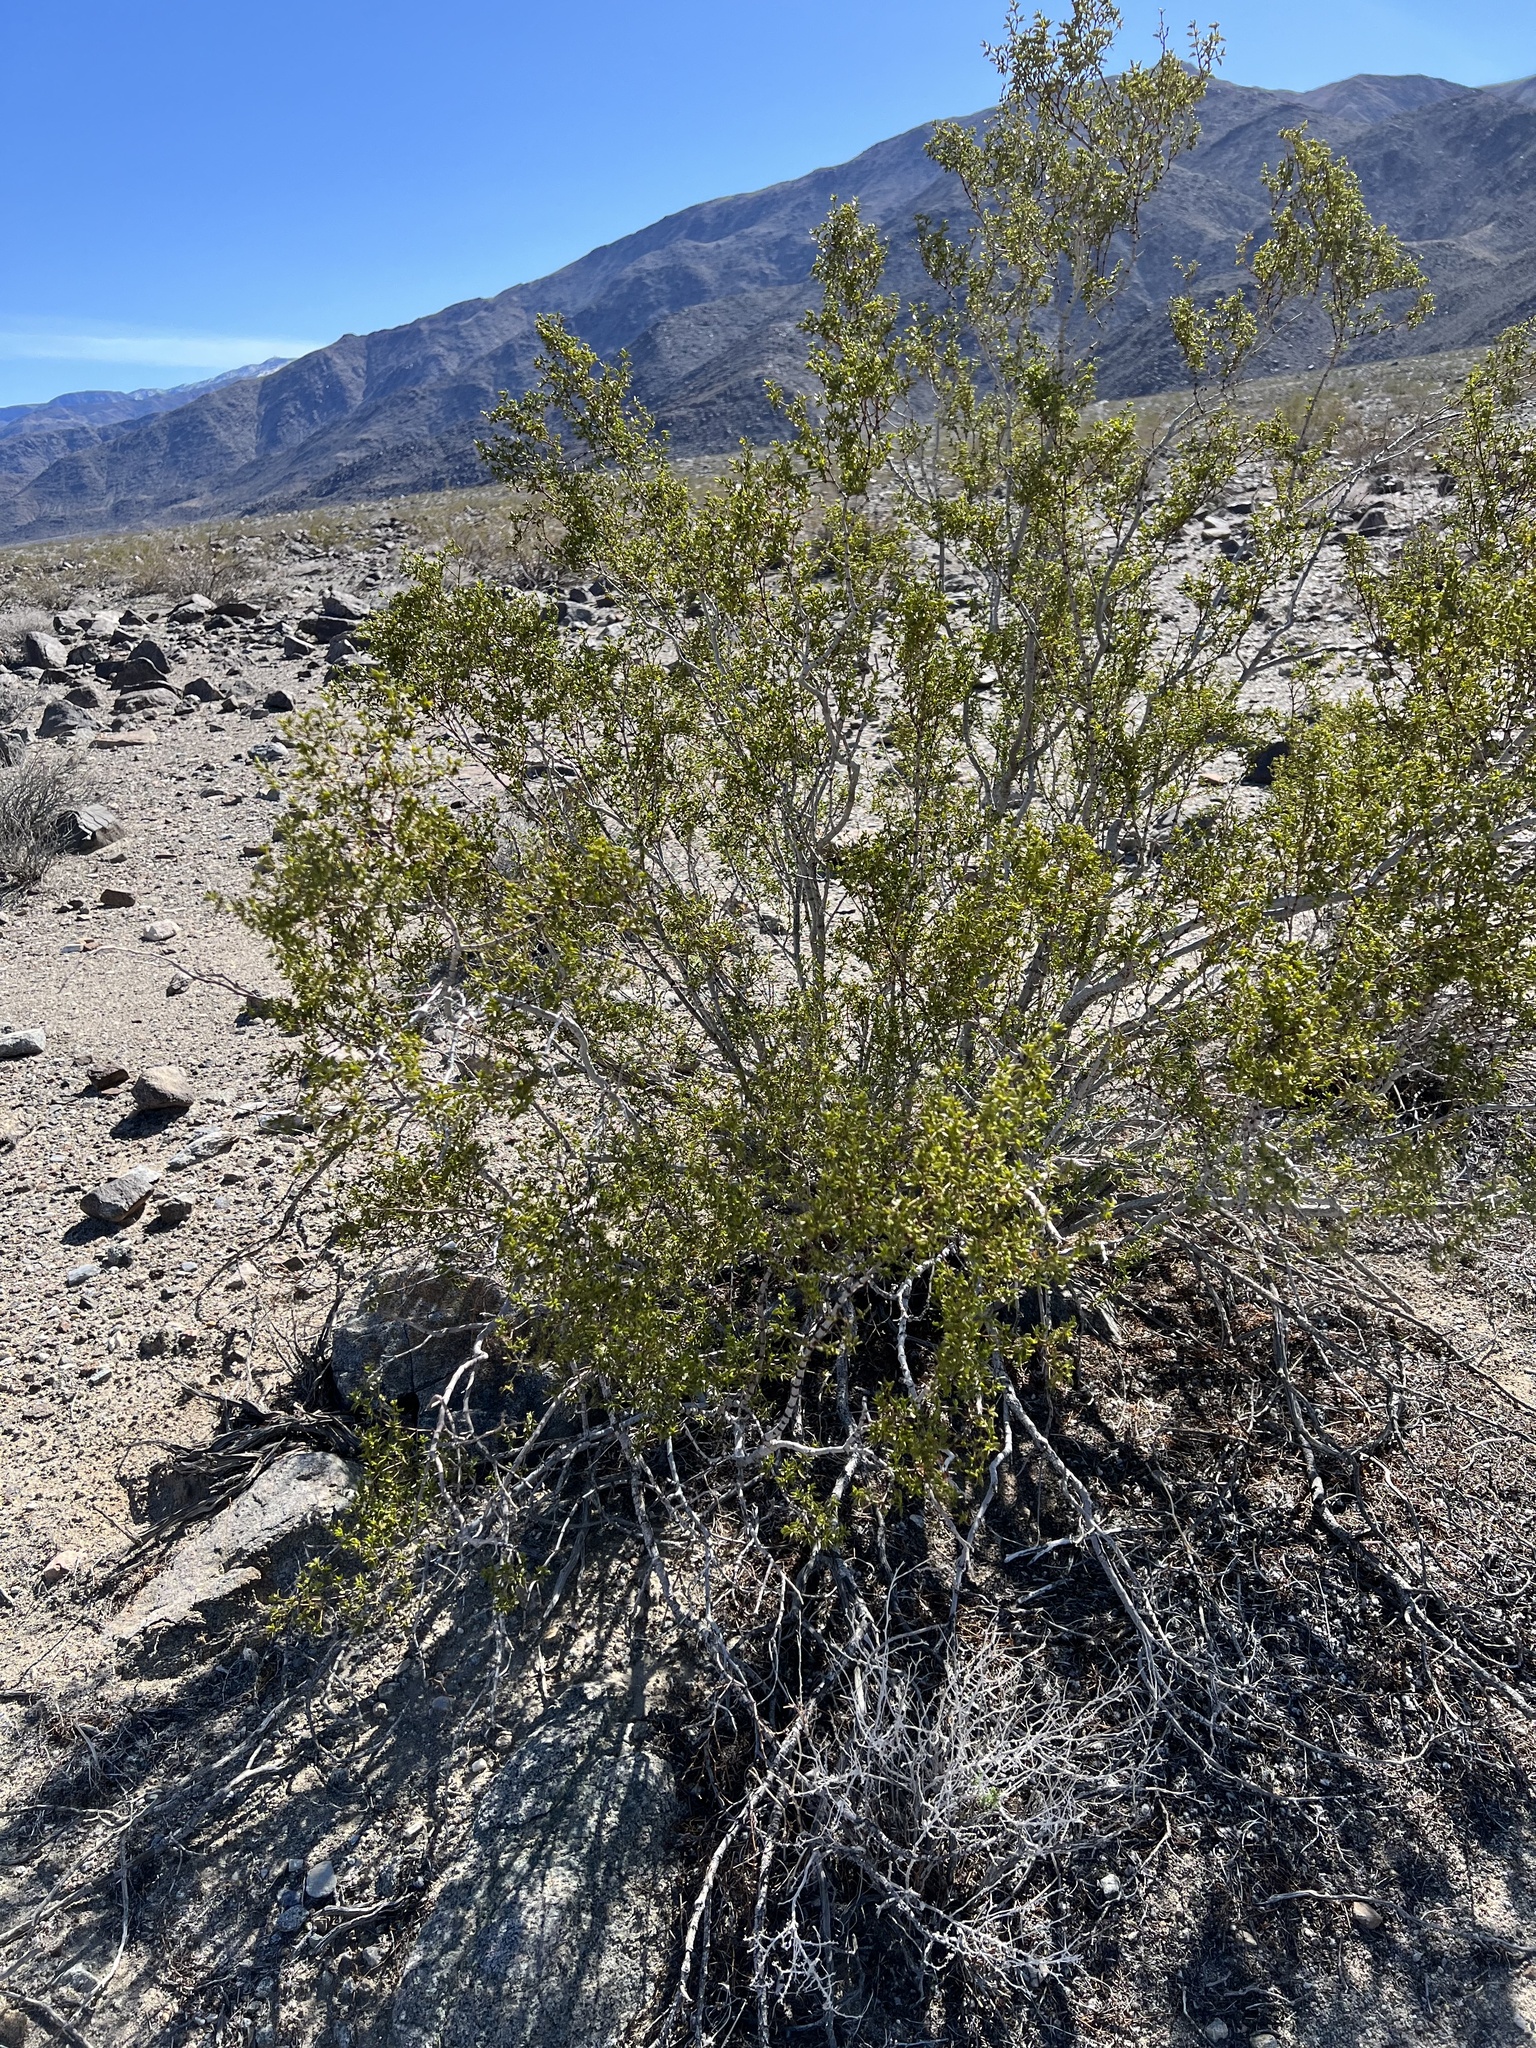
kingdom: Plantae
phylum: Tracheophyta
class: Magnoliopsida
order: Zygophyllales
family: Zygophyllaceae
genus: Larrea
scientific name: Larrea tridentata
